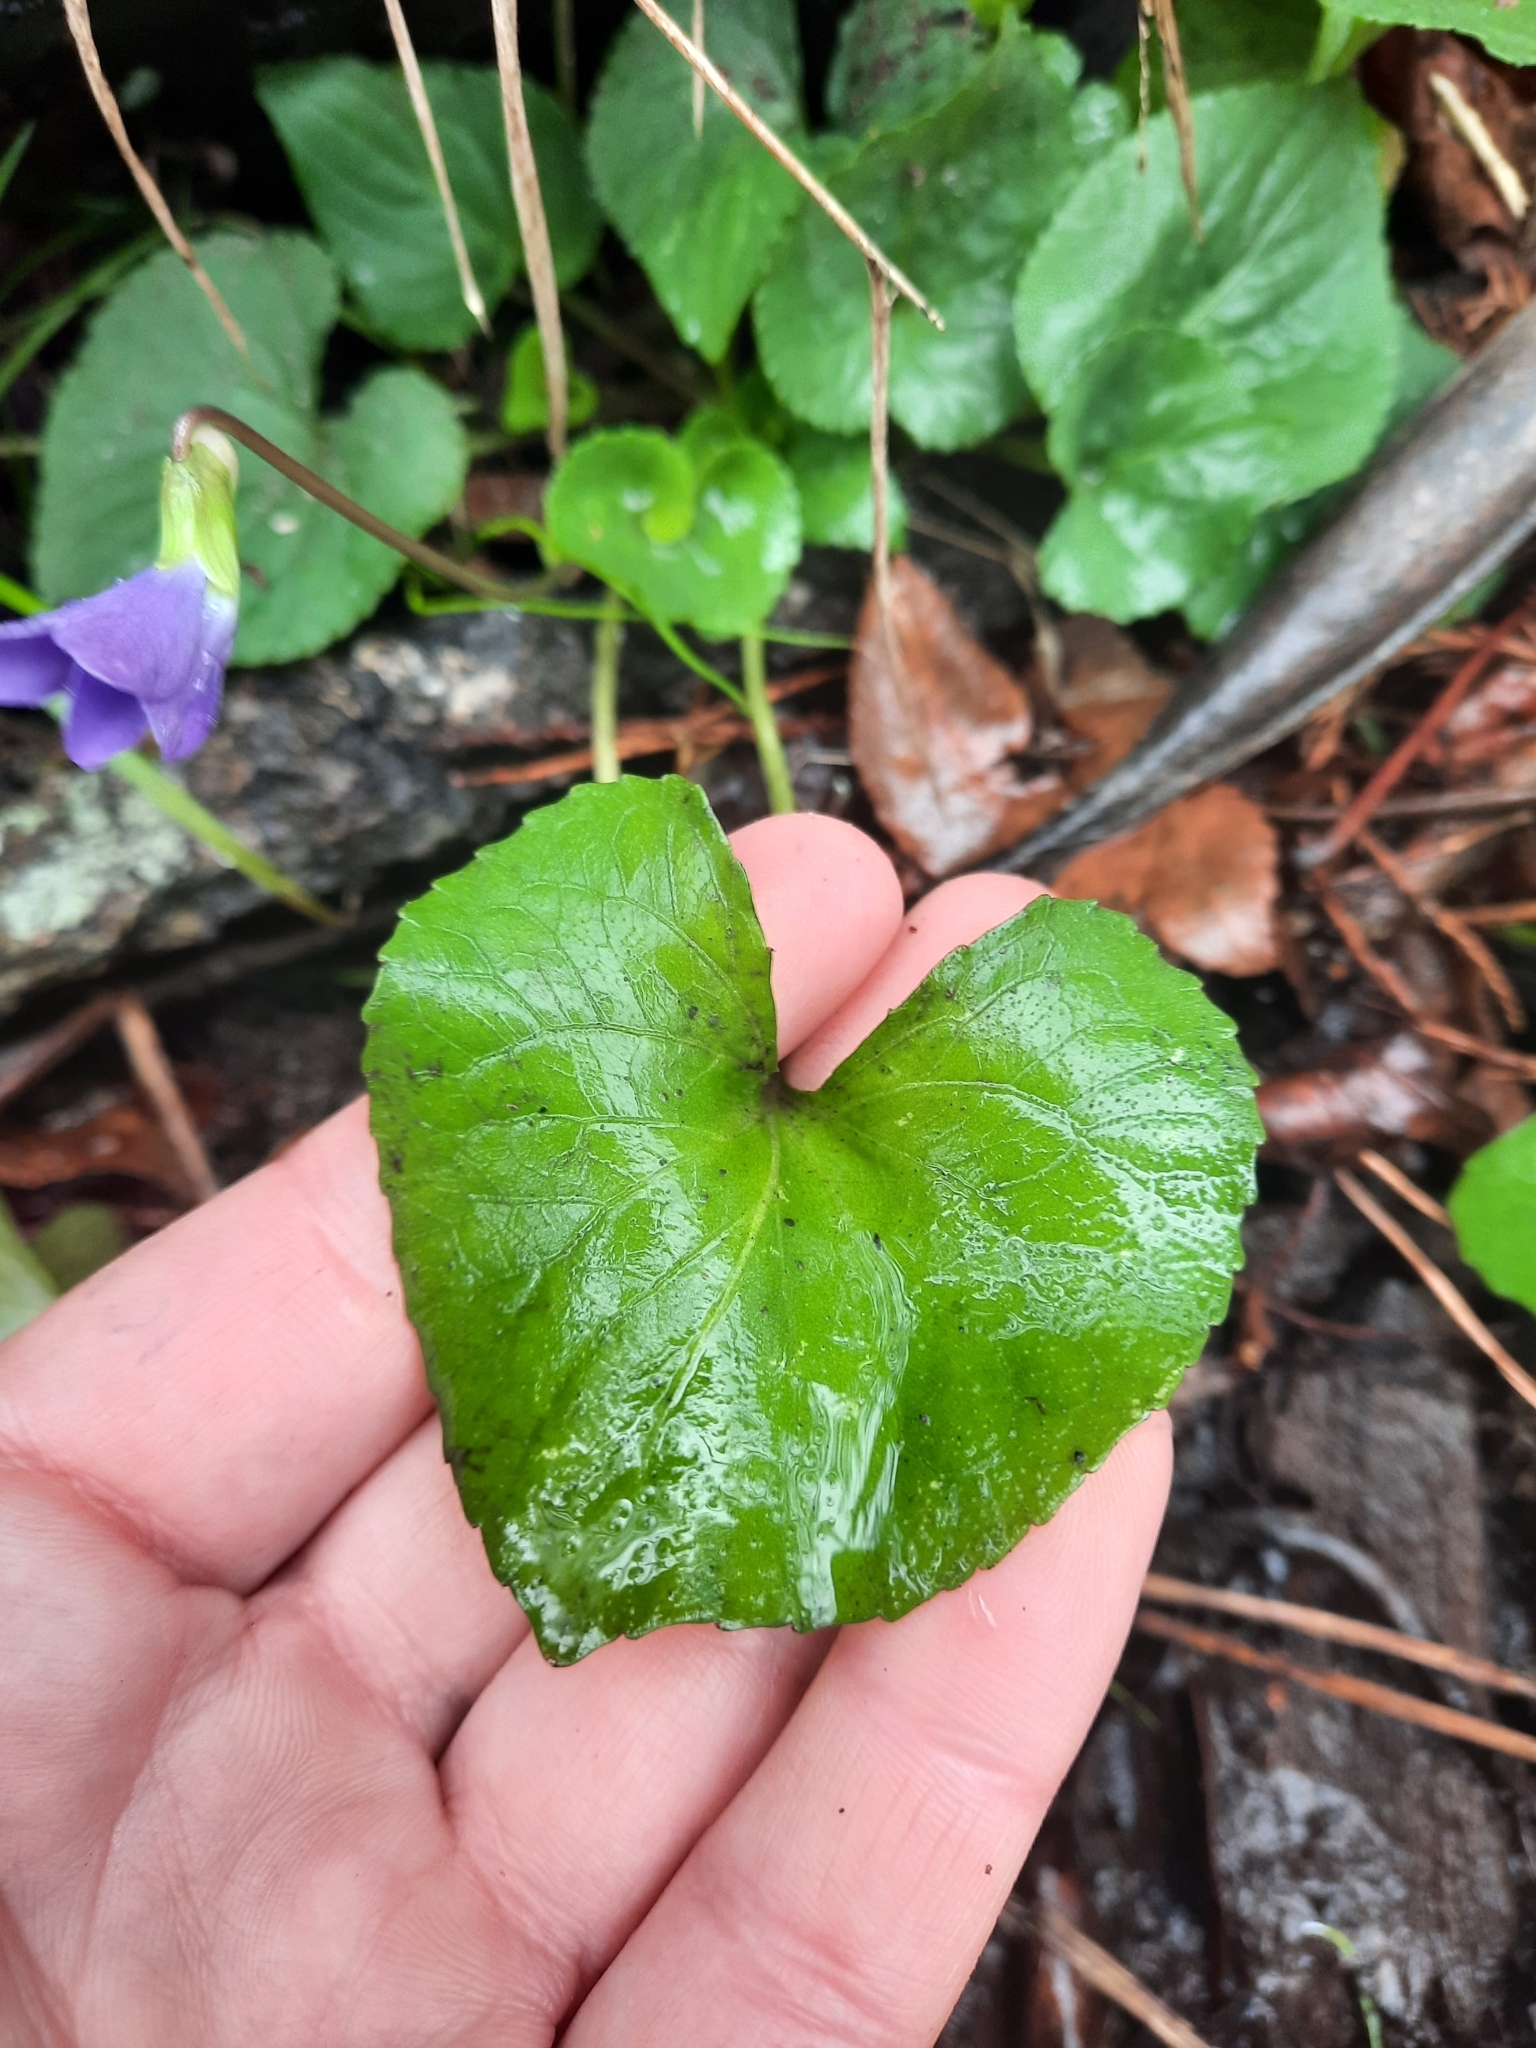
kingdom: Plantae
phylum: Tracheophyta
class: Magnoliopsida
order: Malpighiales
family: Violaceae
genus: Viola
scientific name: Viola sororia
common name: Dooryard violet
